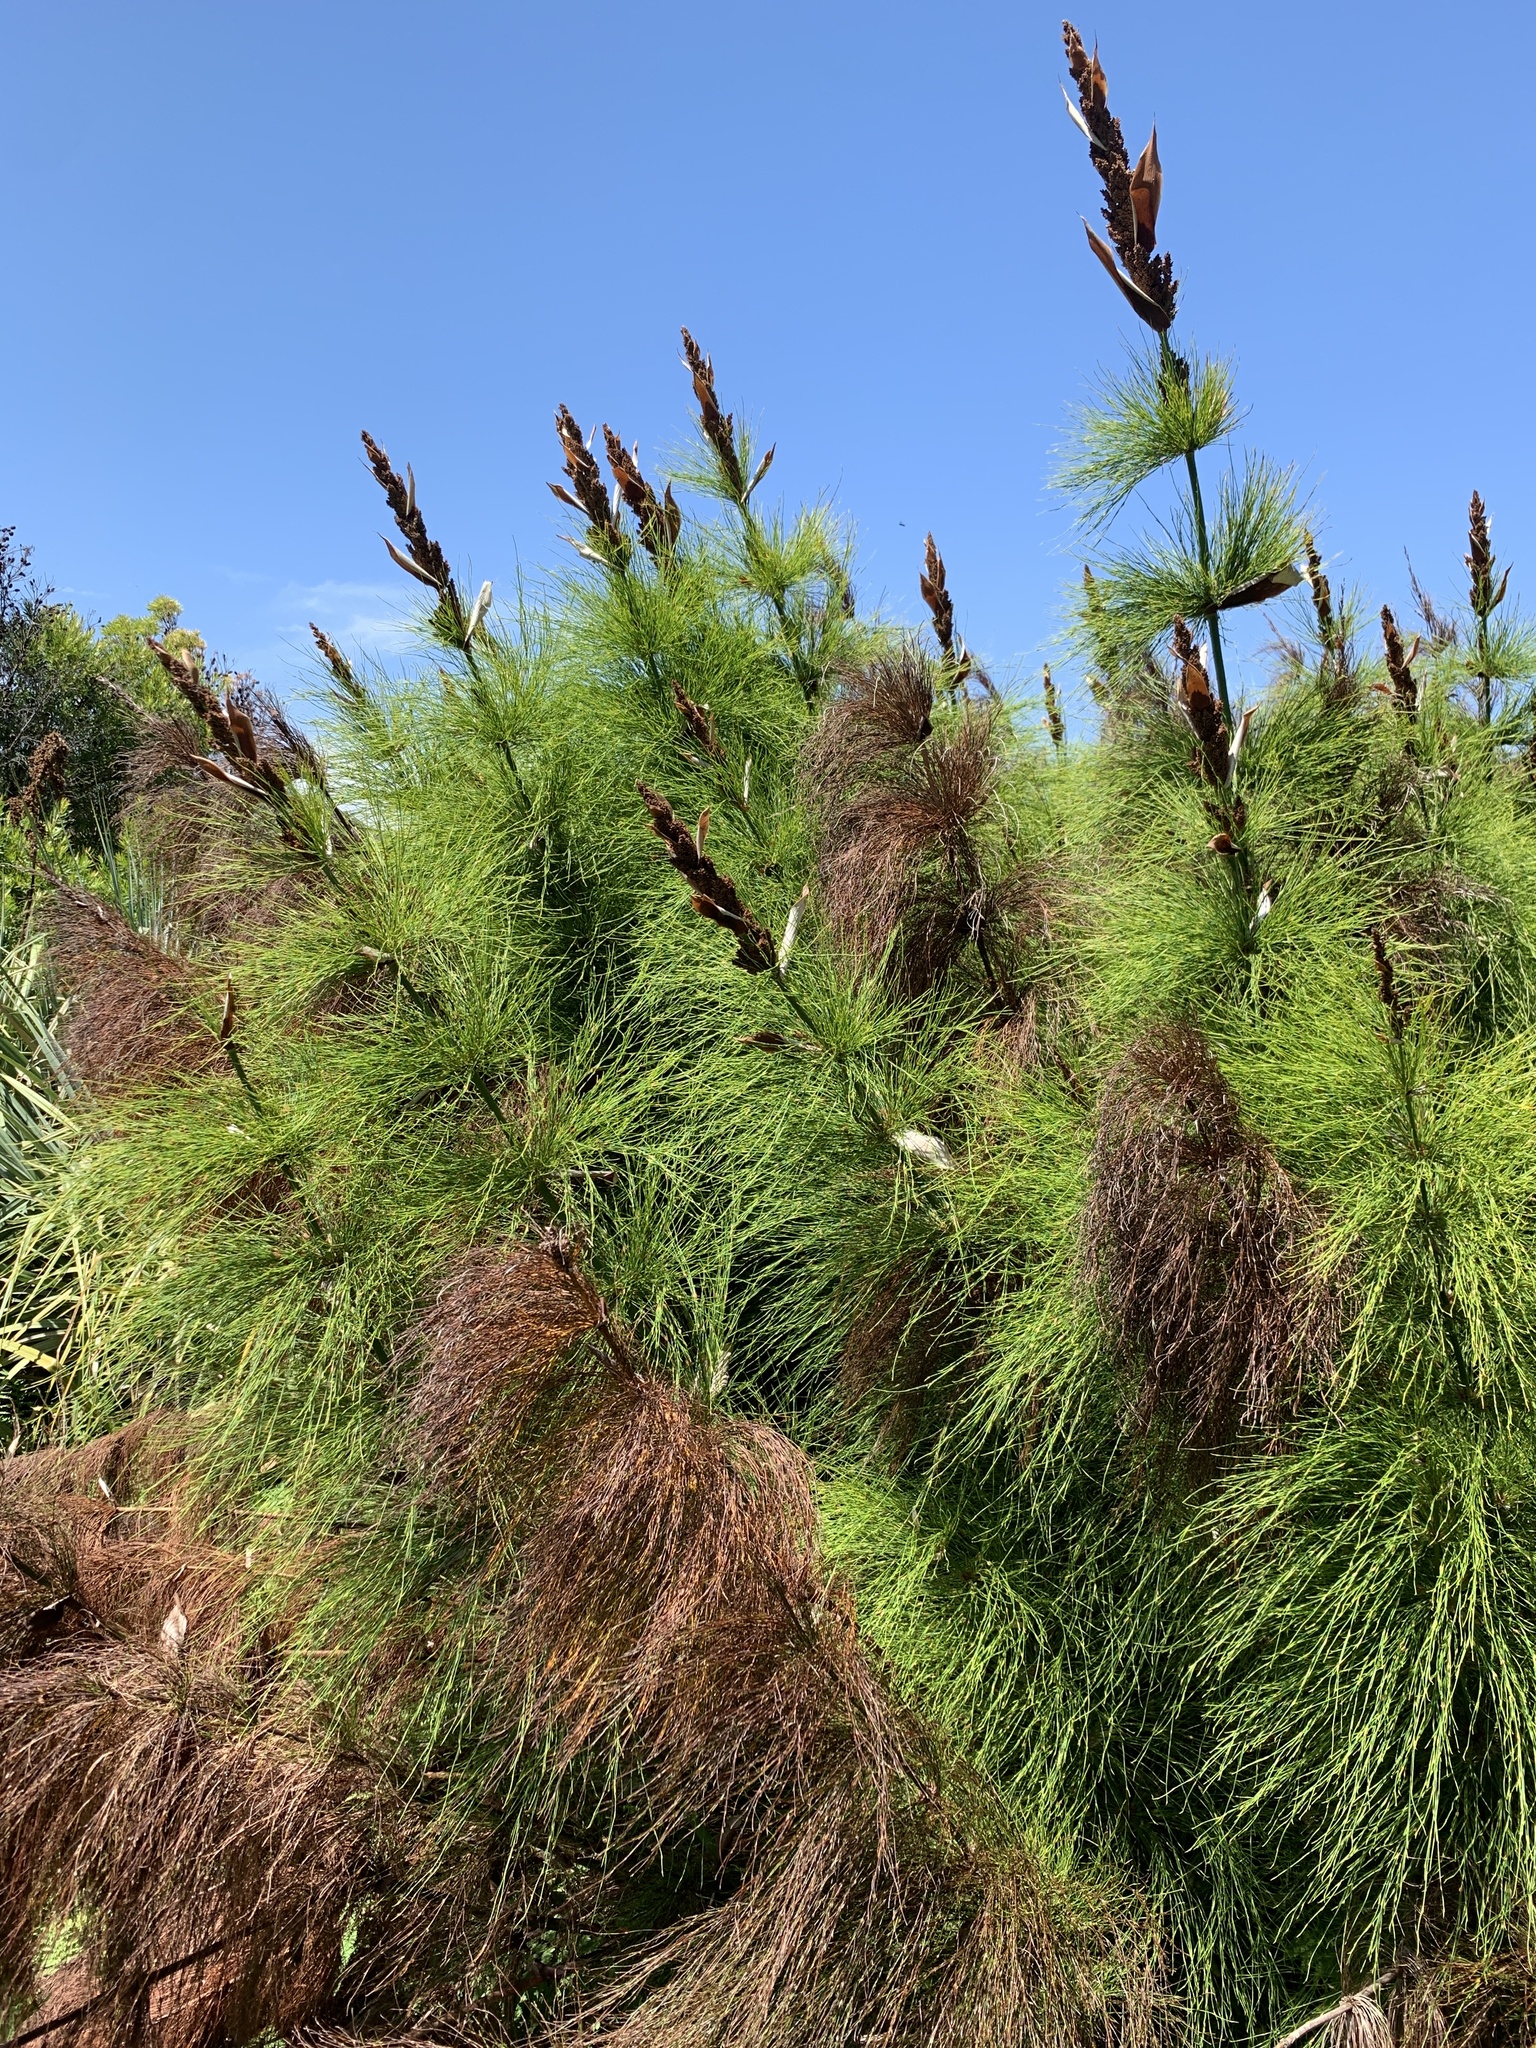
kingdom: Plantae
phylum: Tracheophyta
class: Liliopsida
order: Poales
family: Restionaceae
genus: Elegia
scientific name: Elegia capensis
